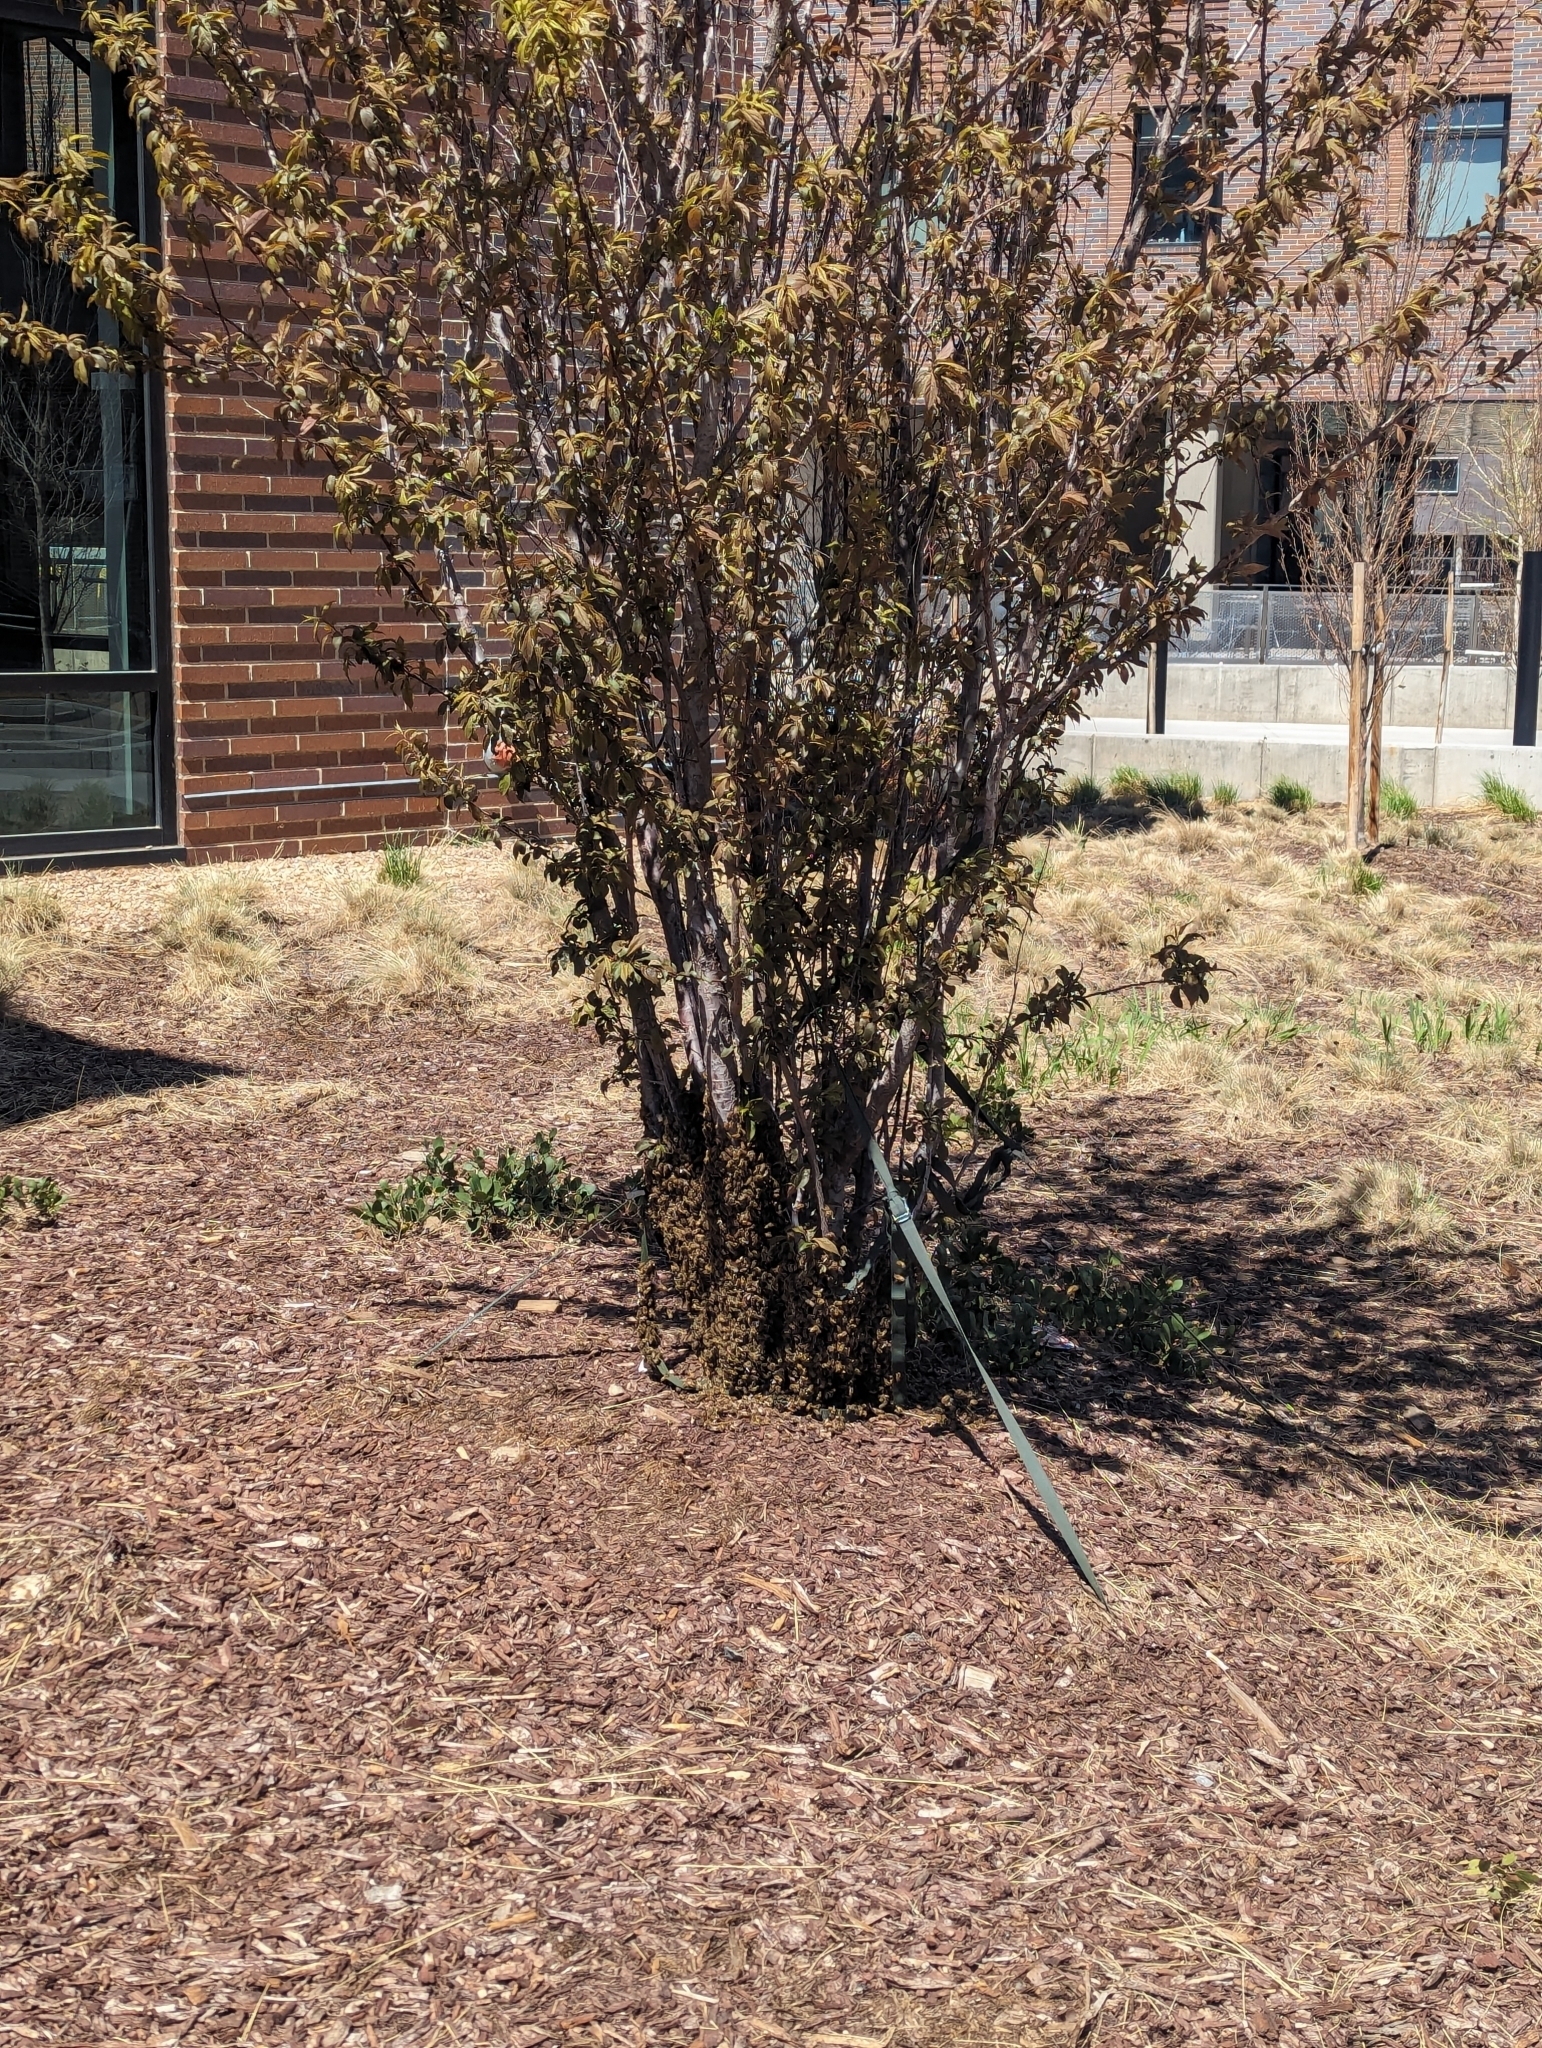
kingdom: Animalia
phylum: Arthropoda
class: Insecta
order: Hymenoptera
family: Apidae
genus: Apis
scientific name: Apis mellifera
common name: Honey bee
